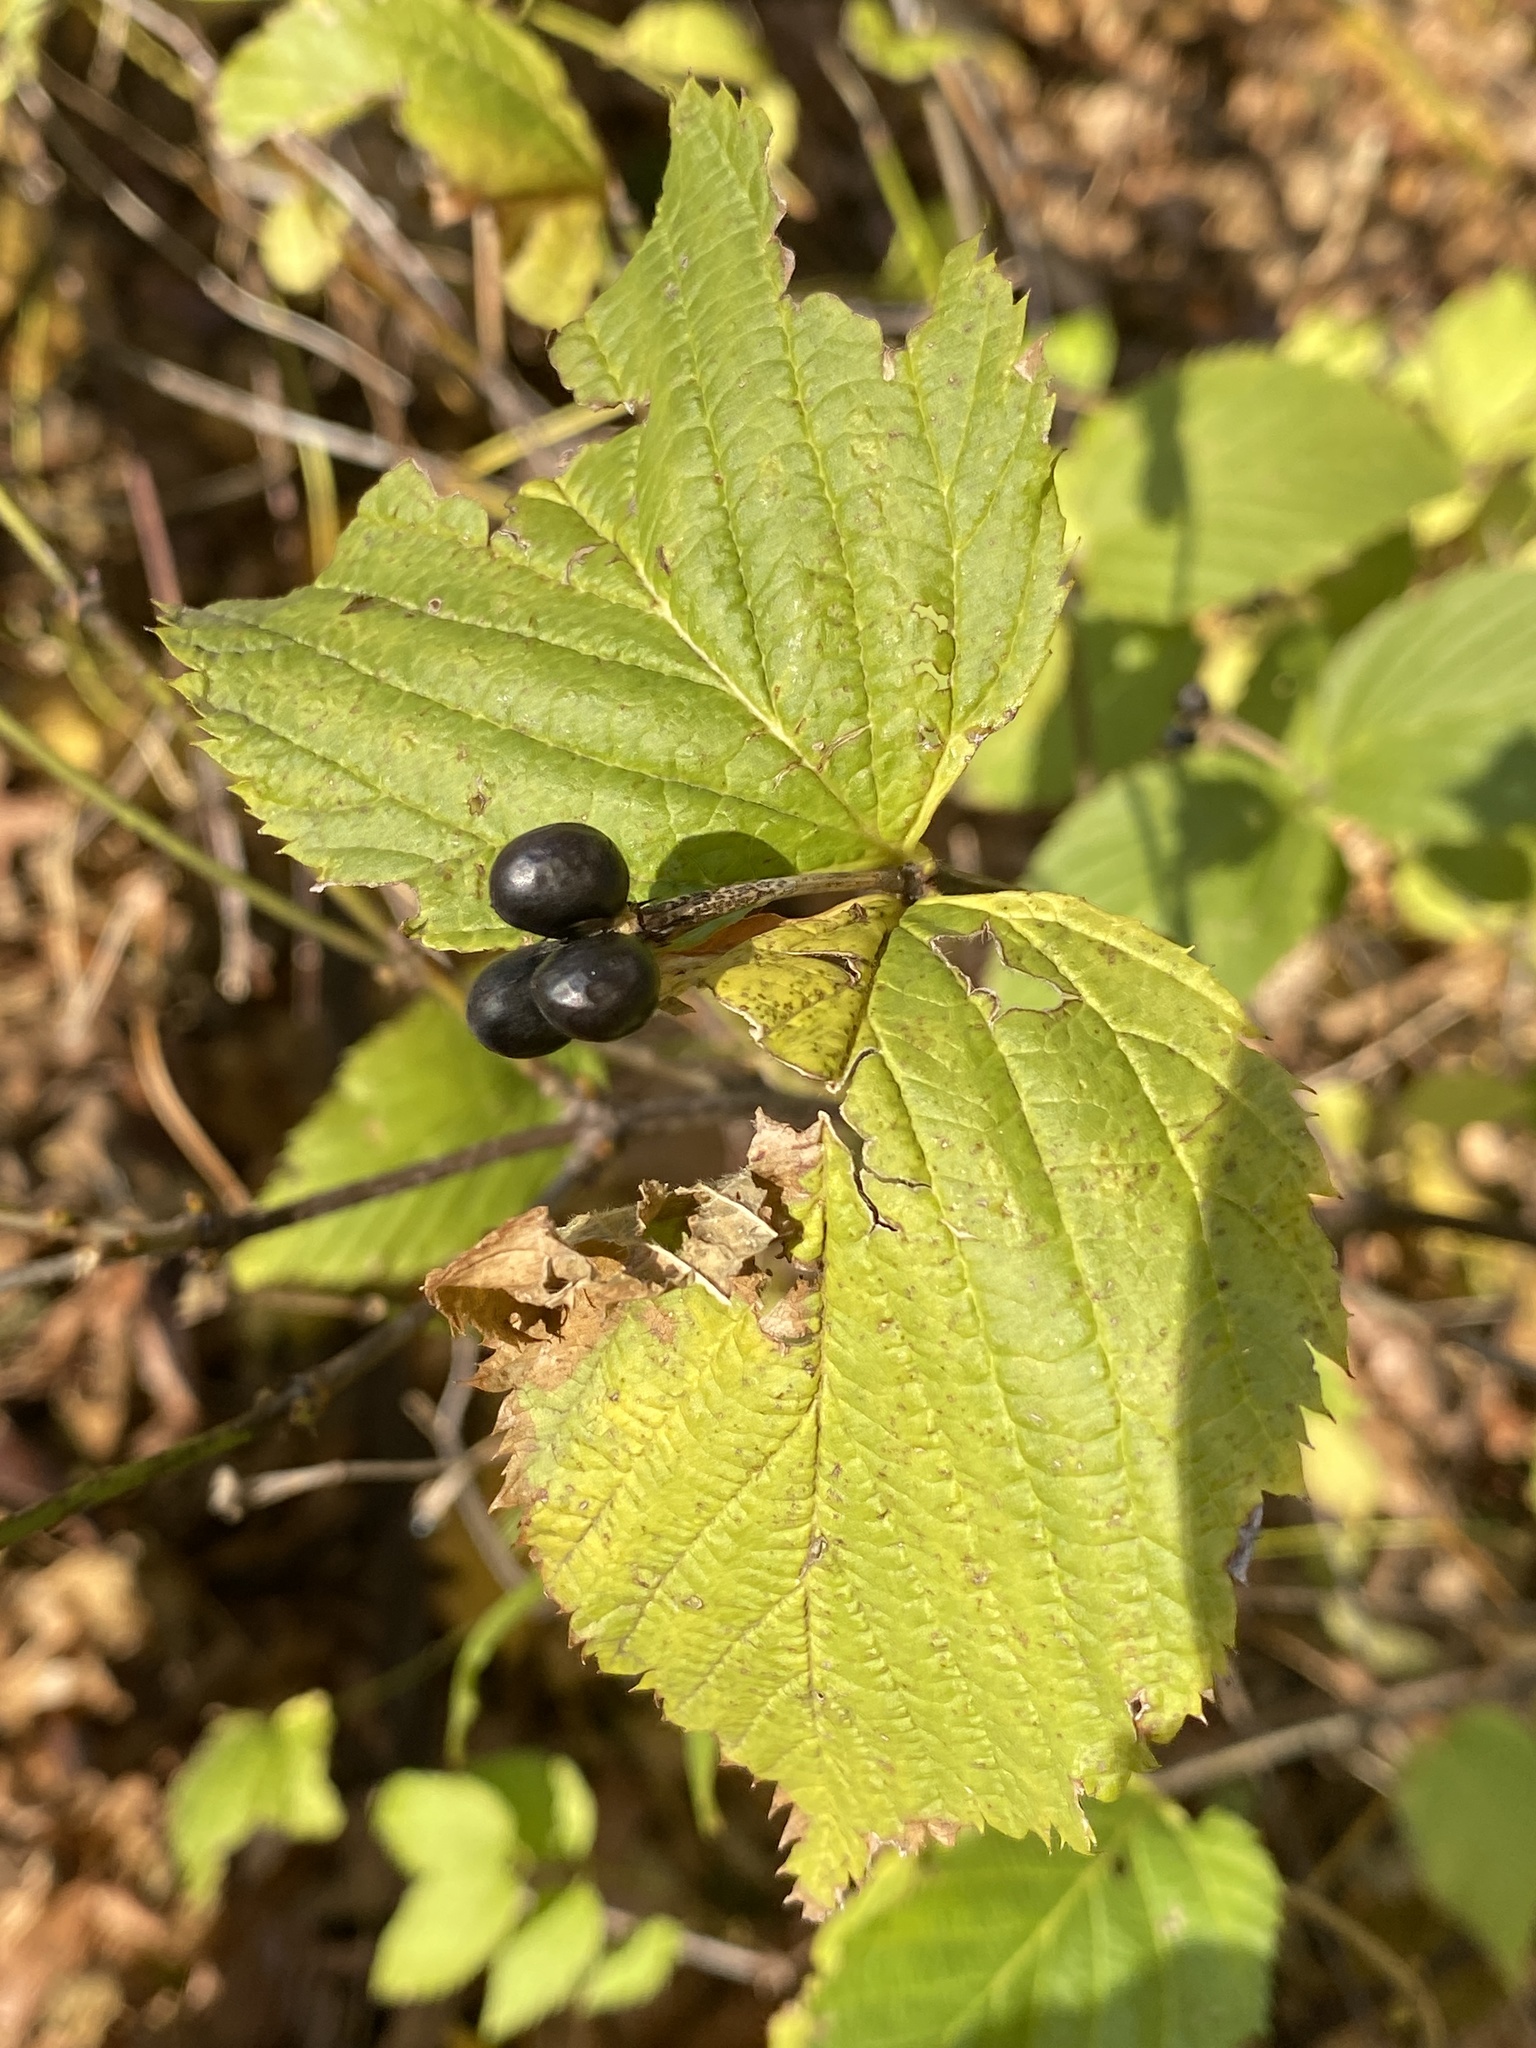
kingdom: Plantae
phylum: Tracheophyta
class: Magnoliopsida
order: Rosales
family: Rosaceae
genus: Rhodotypos
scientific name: Rhodotypos scandens
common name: Jetbead
